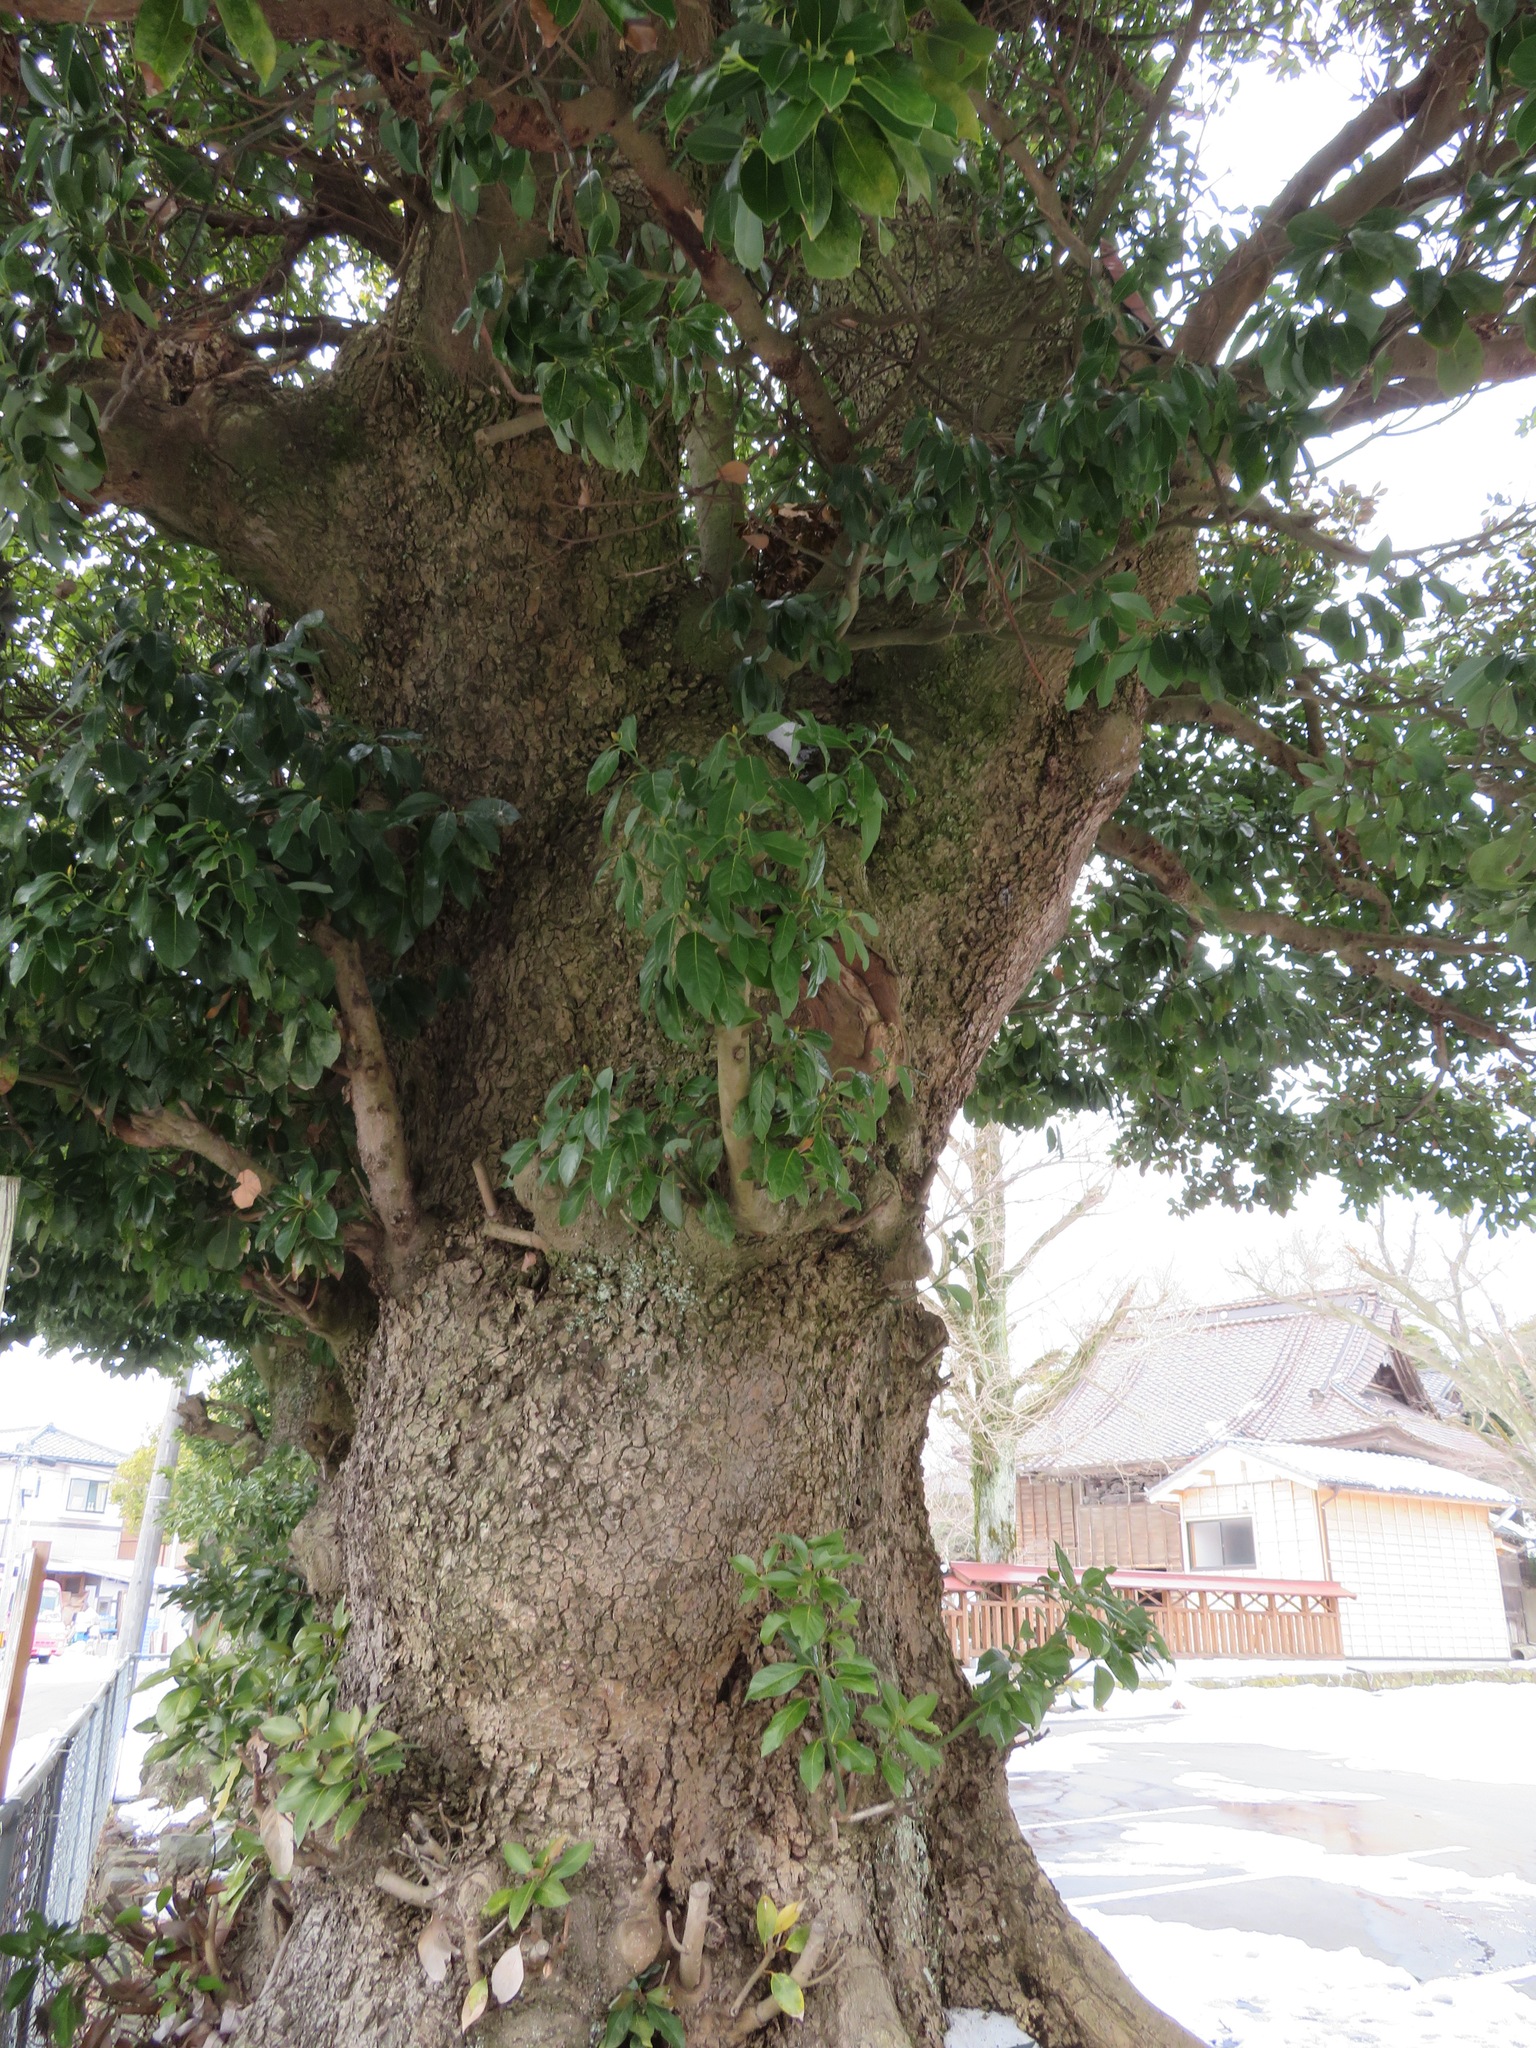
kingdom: Plantae
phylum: Tracheophyta
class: Magnoliopsida
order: Laurales
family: Lauraceae
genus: Machilus
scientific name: Machilus thunbergii
